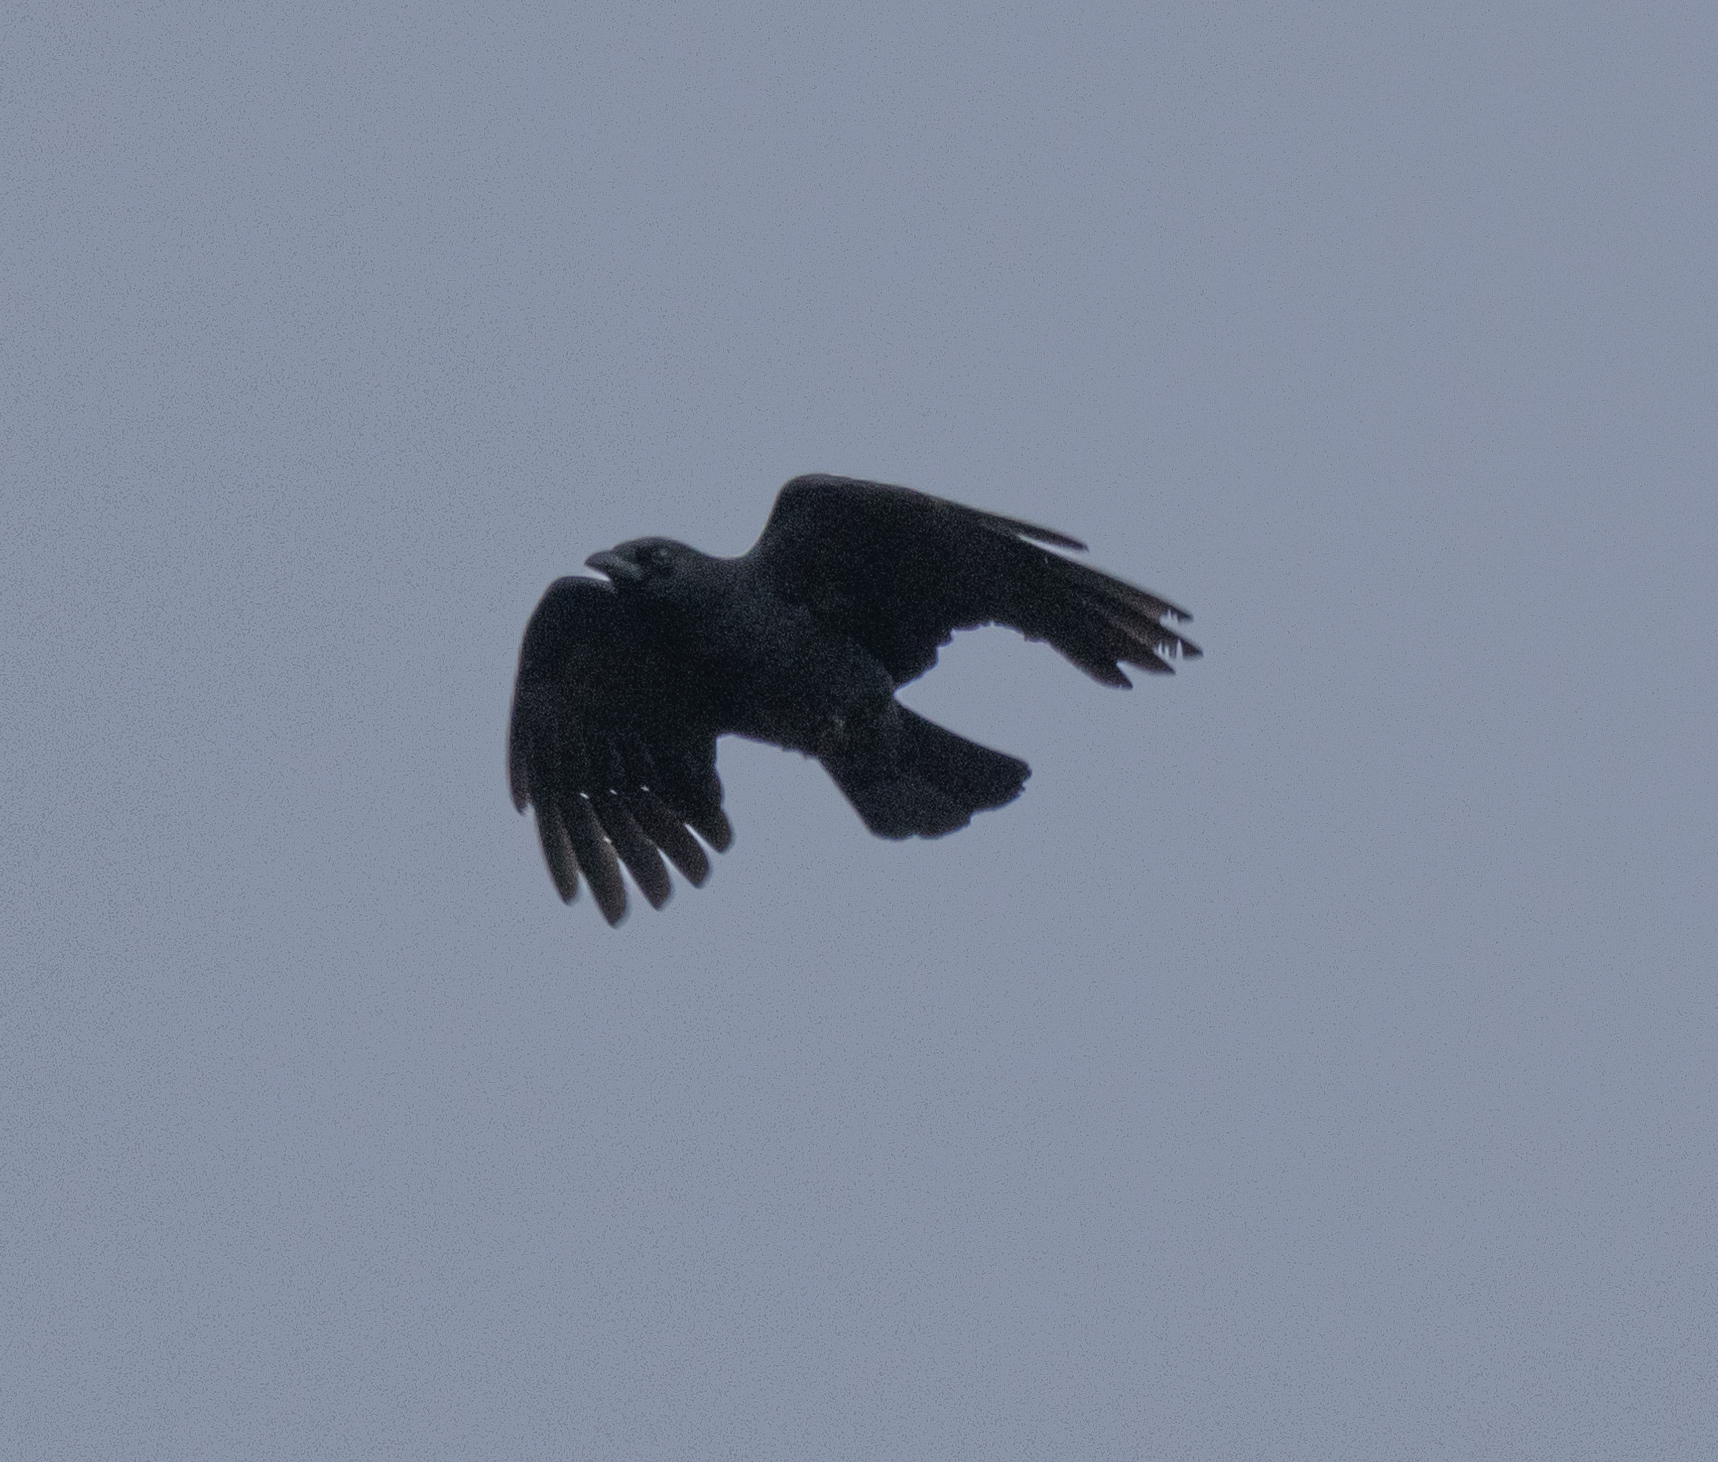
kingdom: Animalia
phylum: Chordata
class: Aves
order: Passeriformes
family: Corvidae
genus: Corvus
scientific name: Corvus brachyrhynchos
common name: American crow
